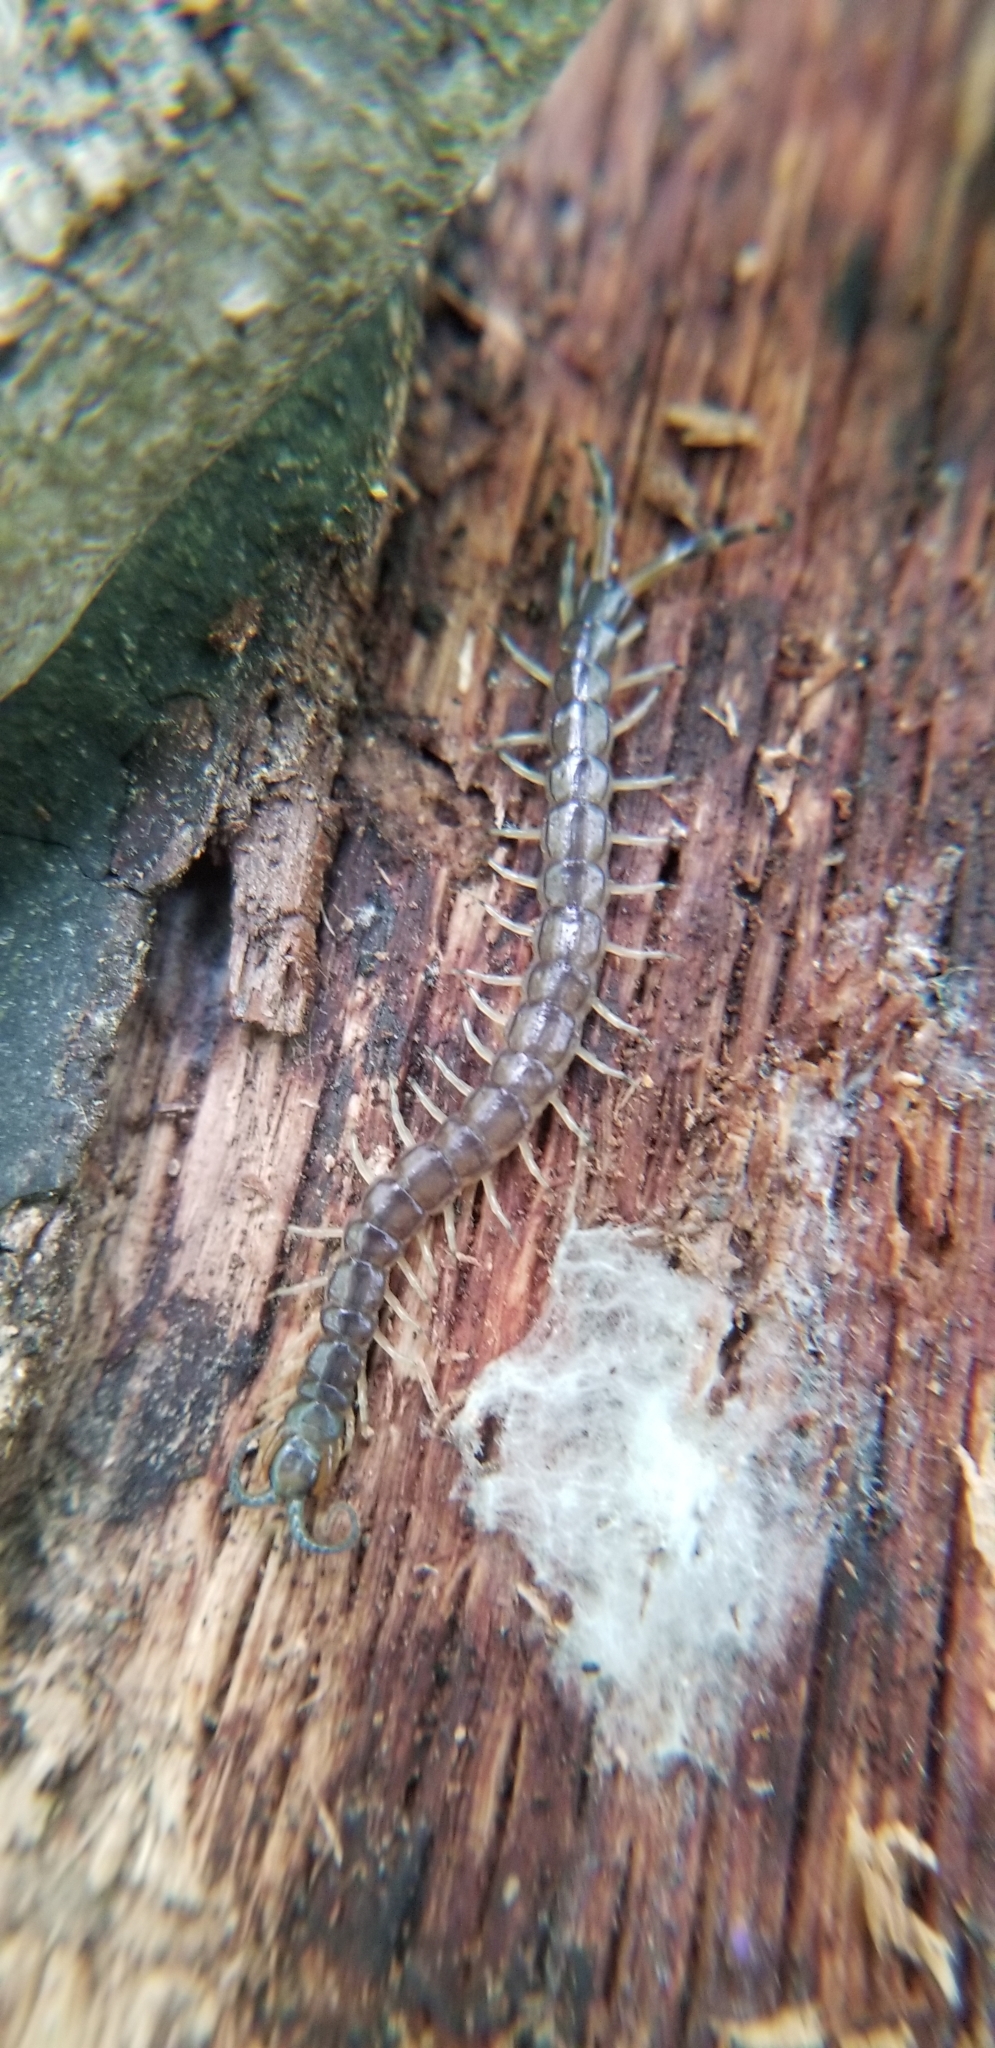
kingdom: Animalia
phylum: Arthropoda
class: Chilopoda
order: Scolopendromorpha
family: Scolopendridae
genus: Hemiscolopendra
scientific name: Hemiscolopendra marginata
